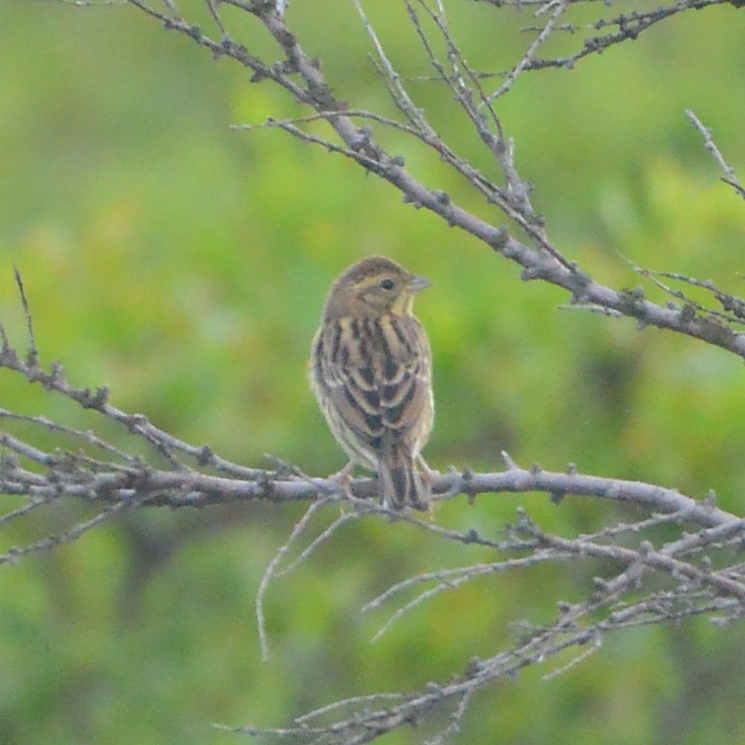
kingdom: Animalia
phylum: Chordata
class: Aves
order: Passeriformes
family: Emberizidae
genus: Emberiza
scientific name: Emberiza aureola
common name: Yellow-breasted bunting
